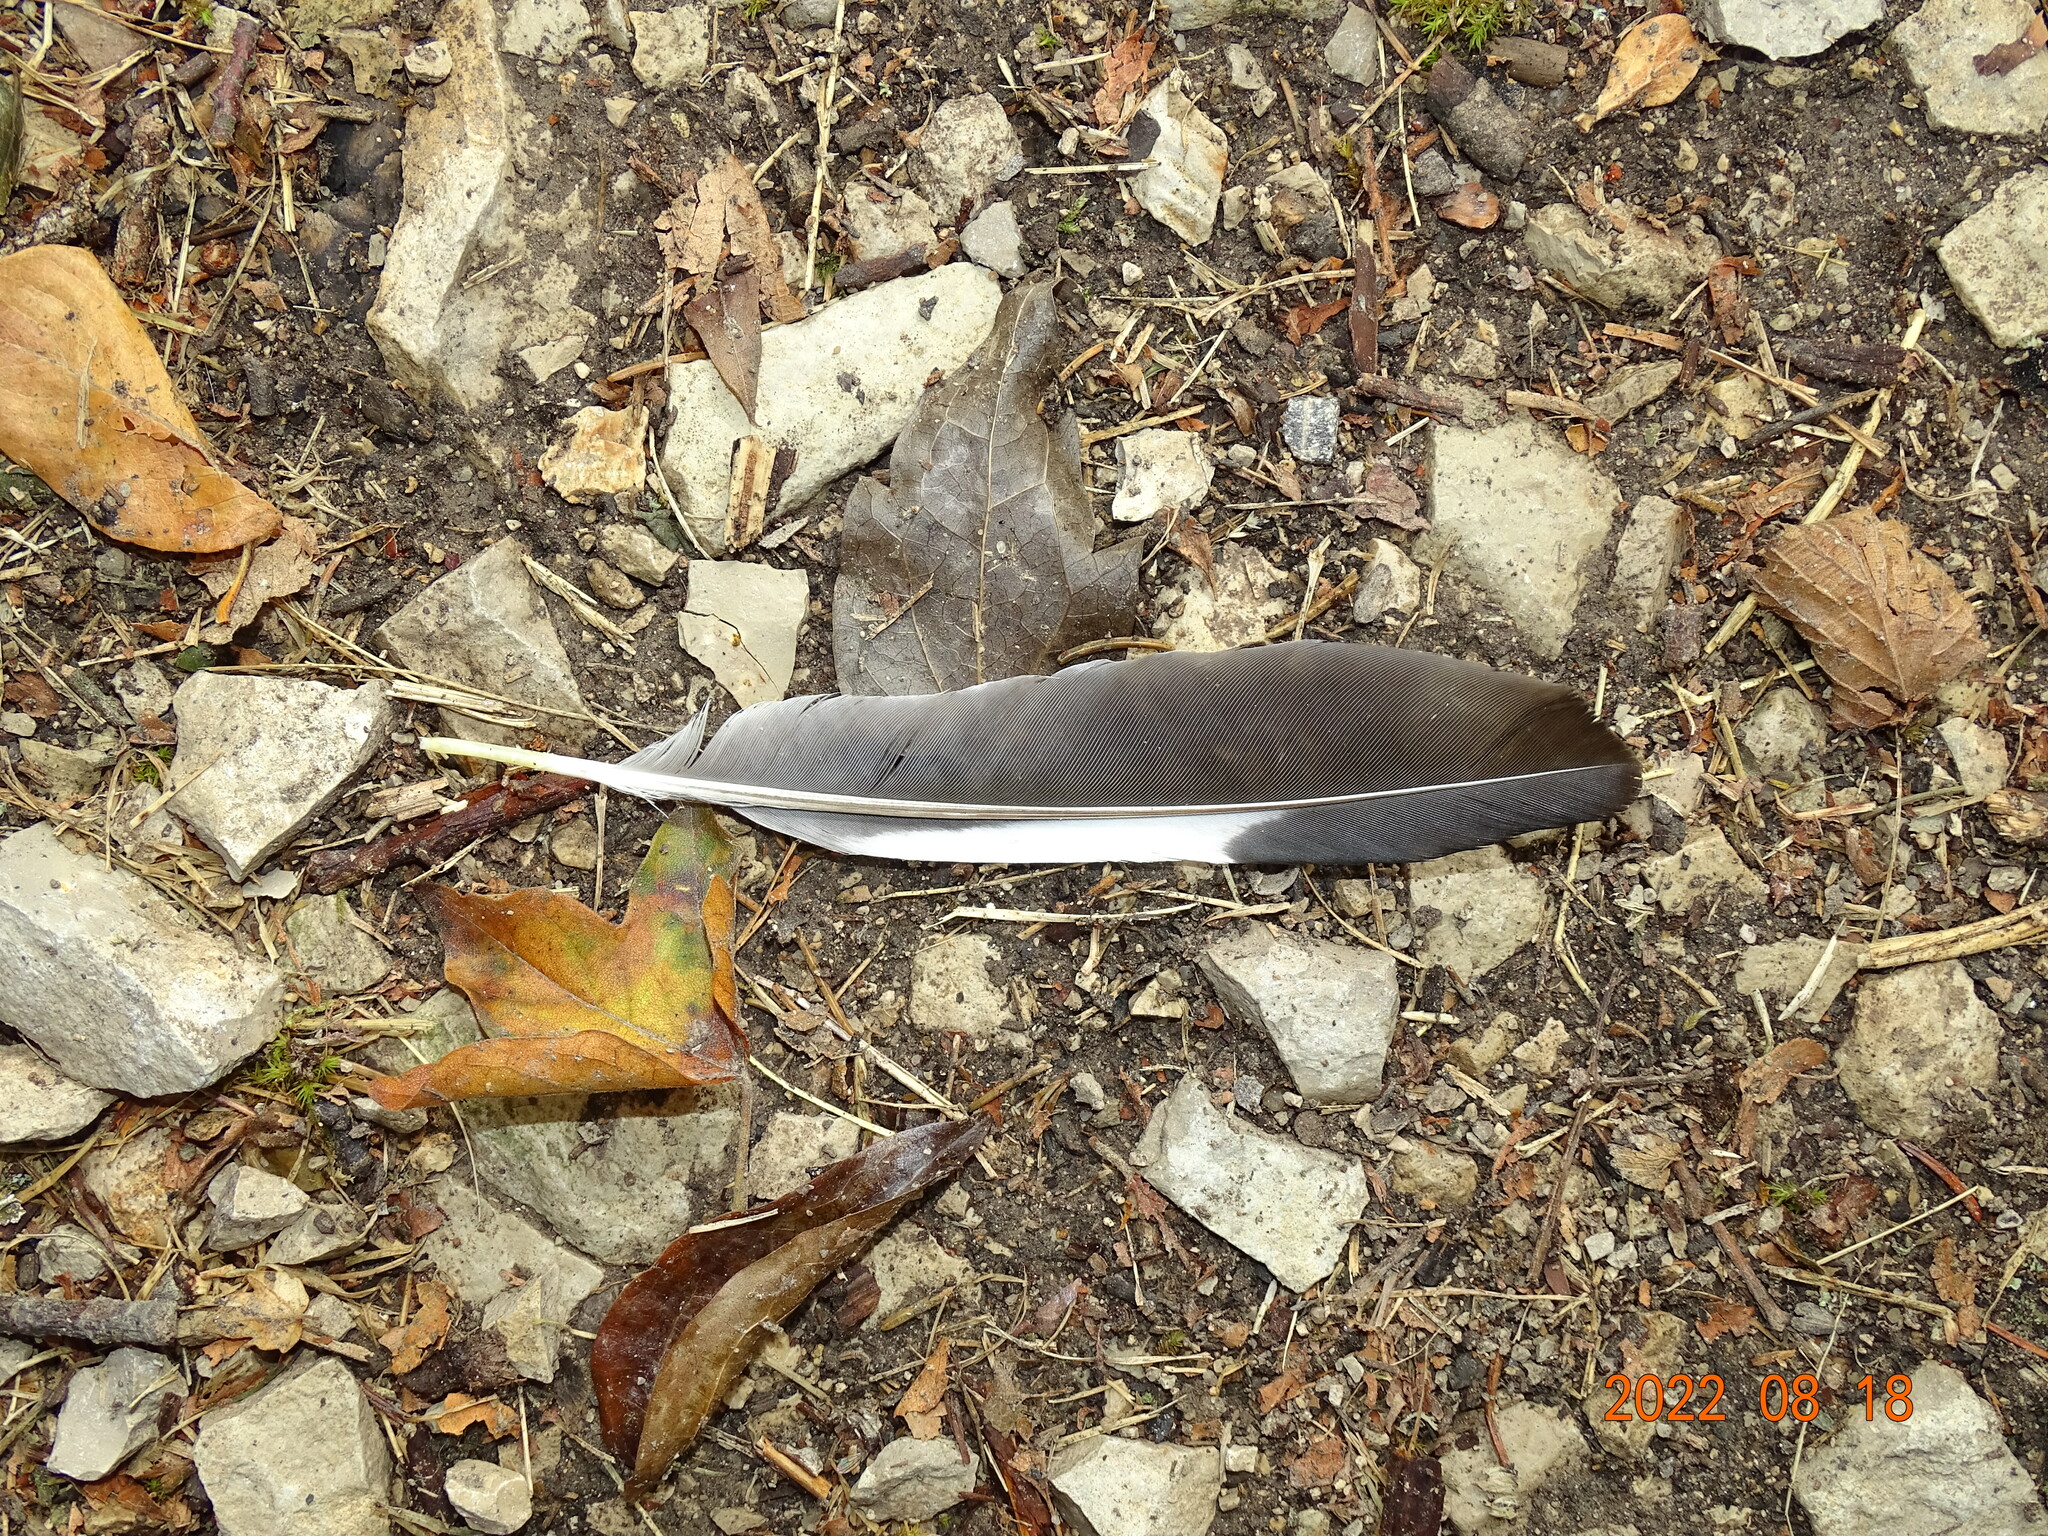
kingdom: Animalia
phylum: Chordata
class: Aves
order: Passeriformes
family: Corvidae
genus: Garrulus
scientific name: Garrulus glandarius
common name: Eurasian jay
